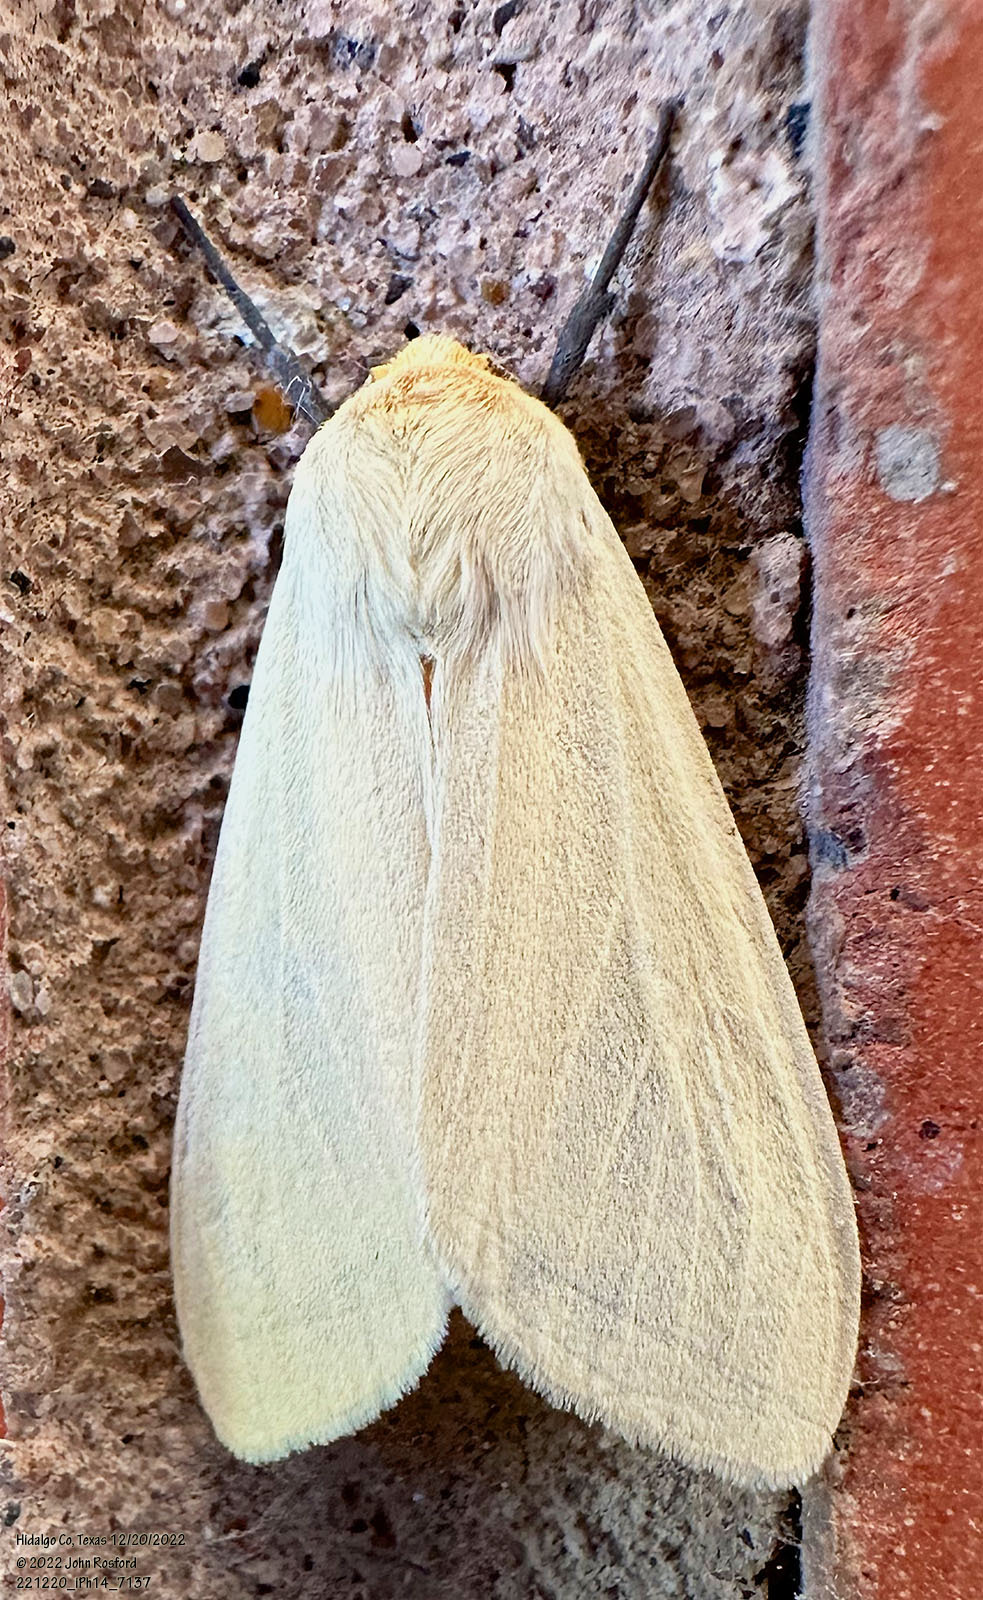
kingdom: Animalia
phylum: Arthropoda
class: Insecta
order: Lepidoptera
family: Erebidae
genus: Pareuchaetes
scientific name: Pareuchaetes insulata
